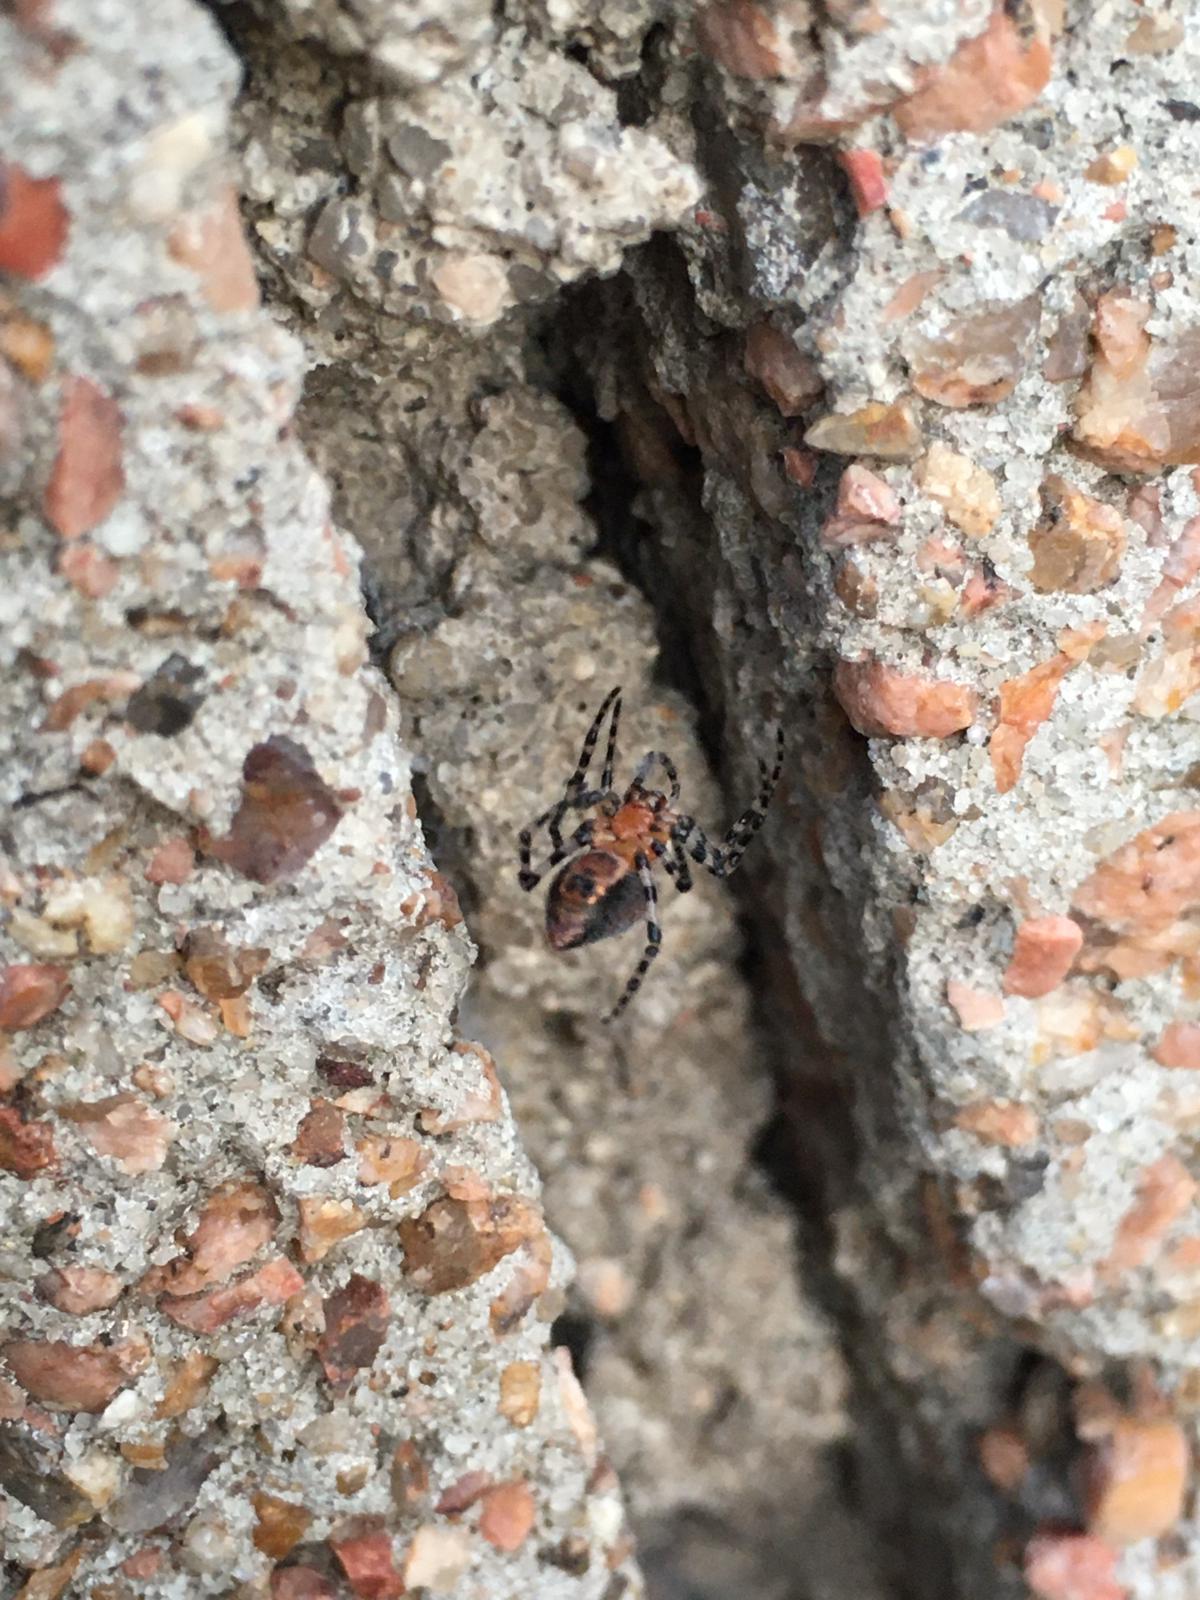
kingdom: Animalia
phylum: Arthropoda
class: Arachnida
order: Araneae
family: Araneidae
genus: Alpaida
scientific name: Alpaida gallardoi
